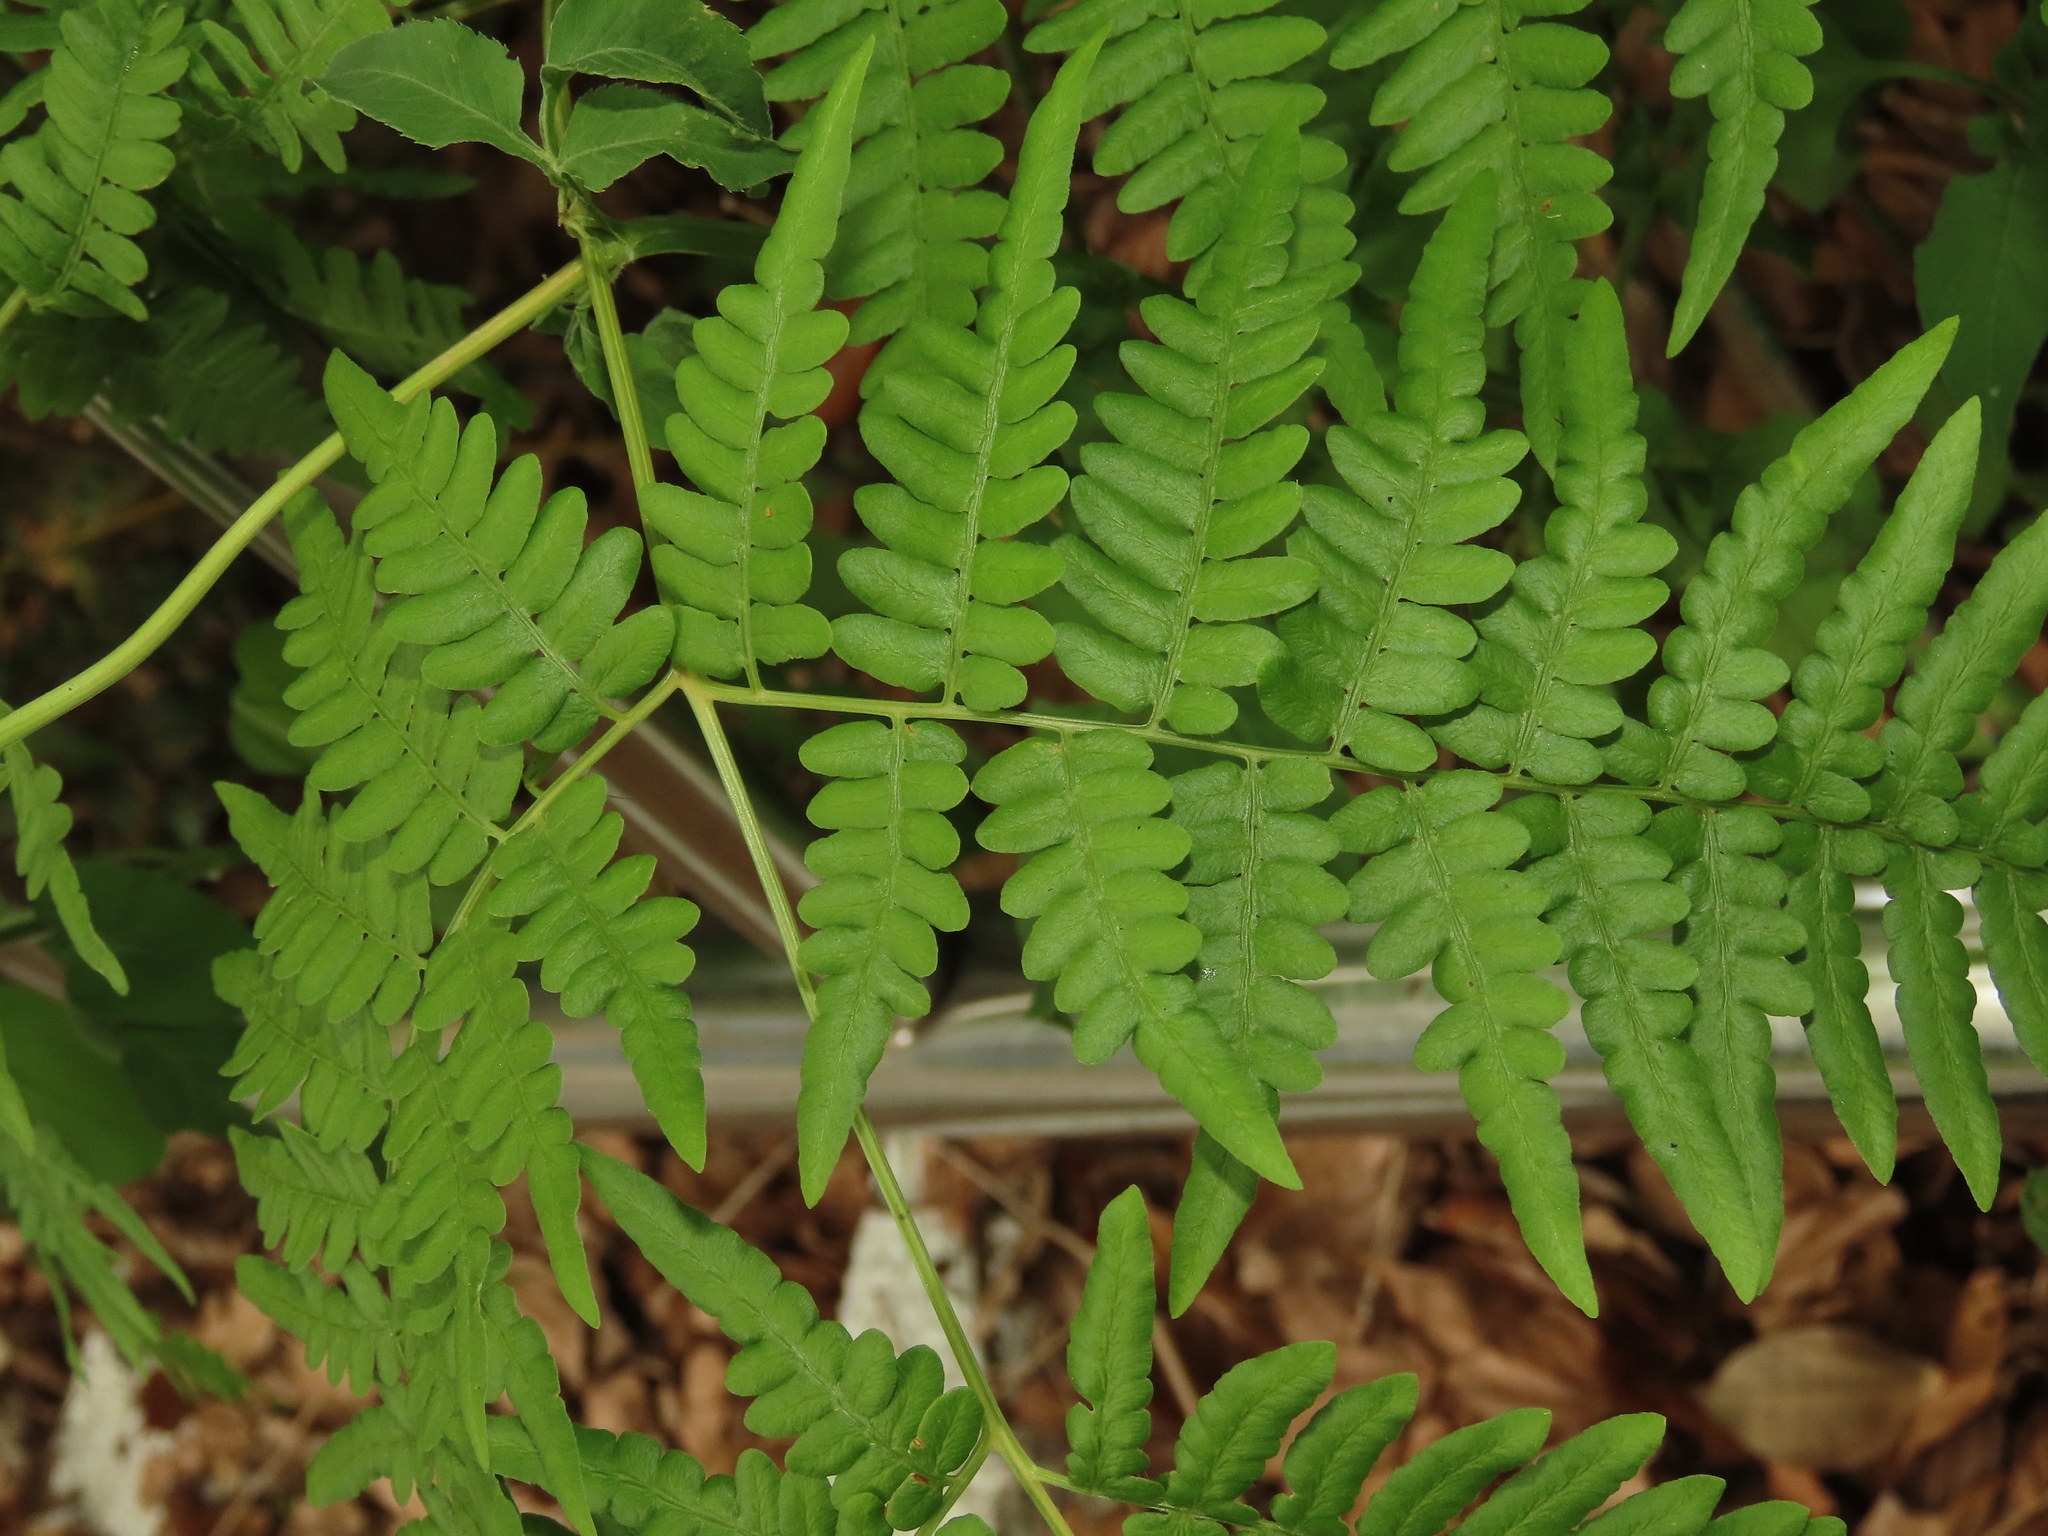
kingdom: Plantae
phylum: Tracheophyta
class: Polypodiopsida
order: Polypodiales
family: Dennstaedtiaceae
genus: Pteridium
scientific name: Pteridium aquilinum
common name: Bracken
